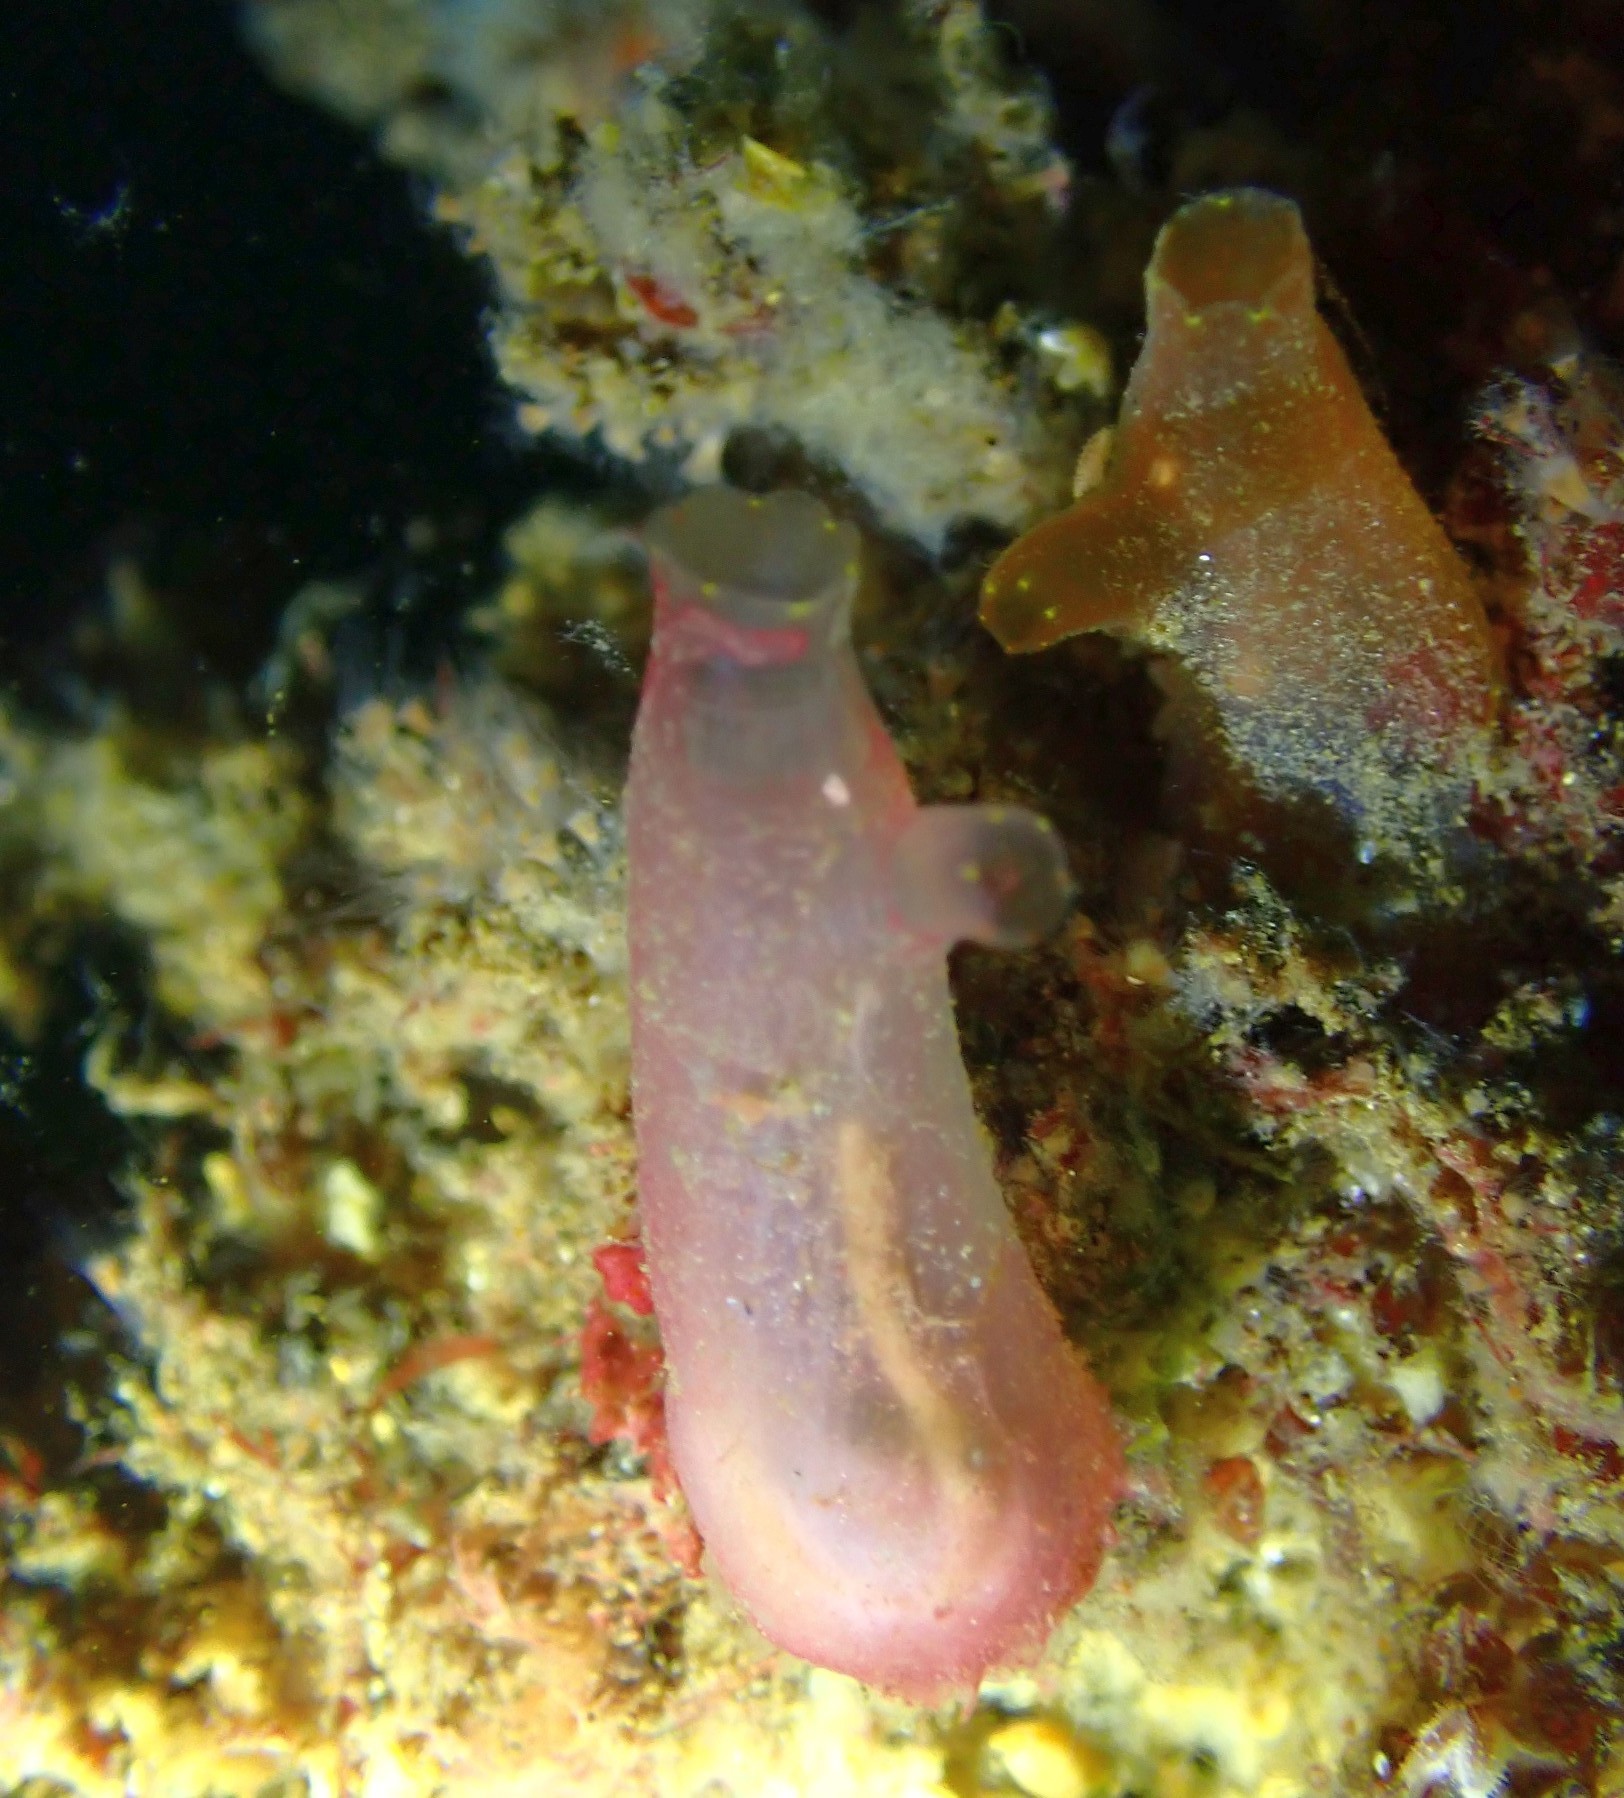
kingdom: Animalia
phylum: Chordata
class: Ascidiacea
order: Phlebobranchia
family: Cionidae
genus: Ciona
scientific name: Ciona intestinalis
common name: Vase tunicate
